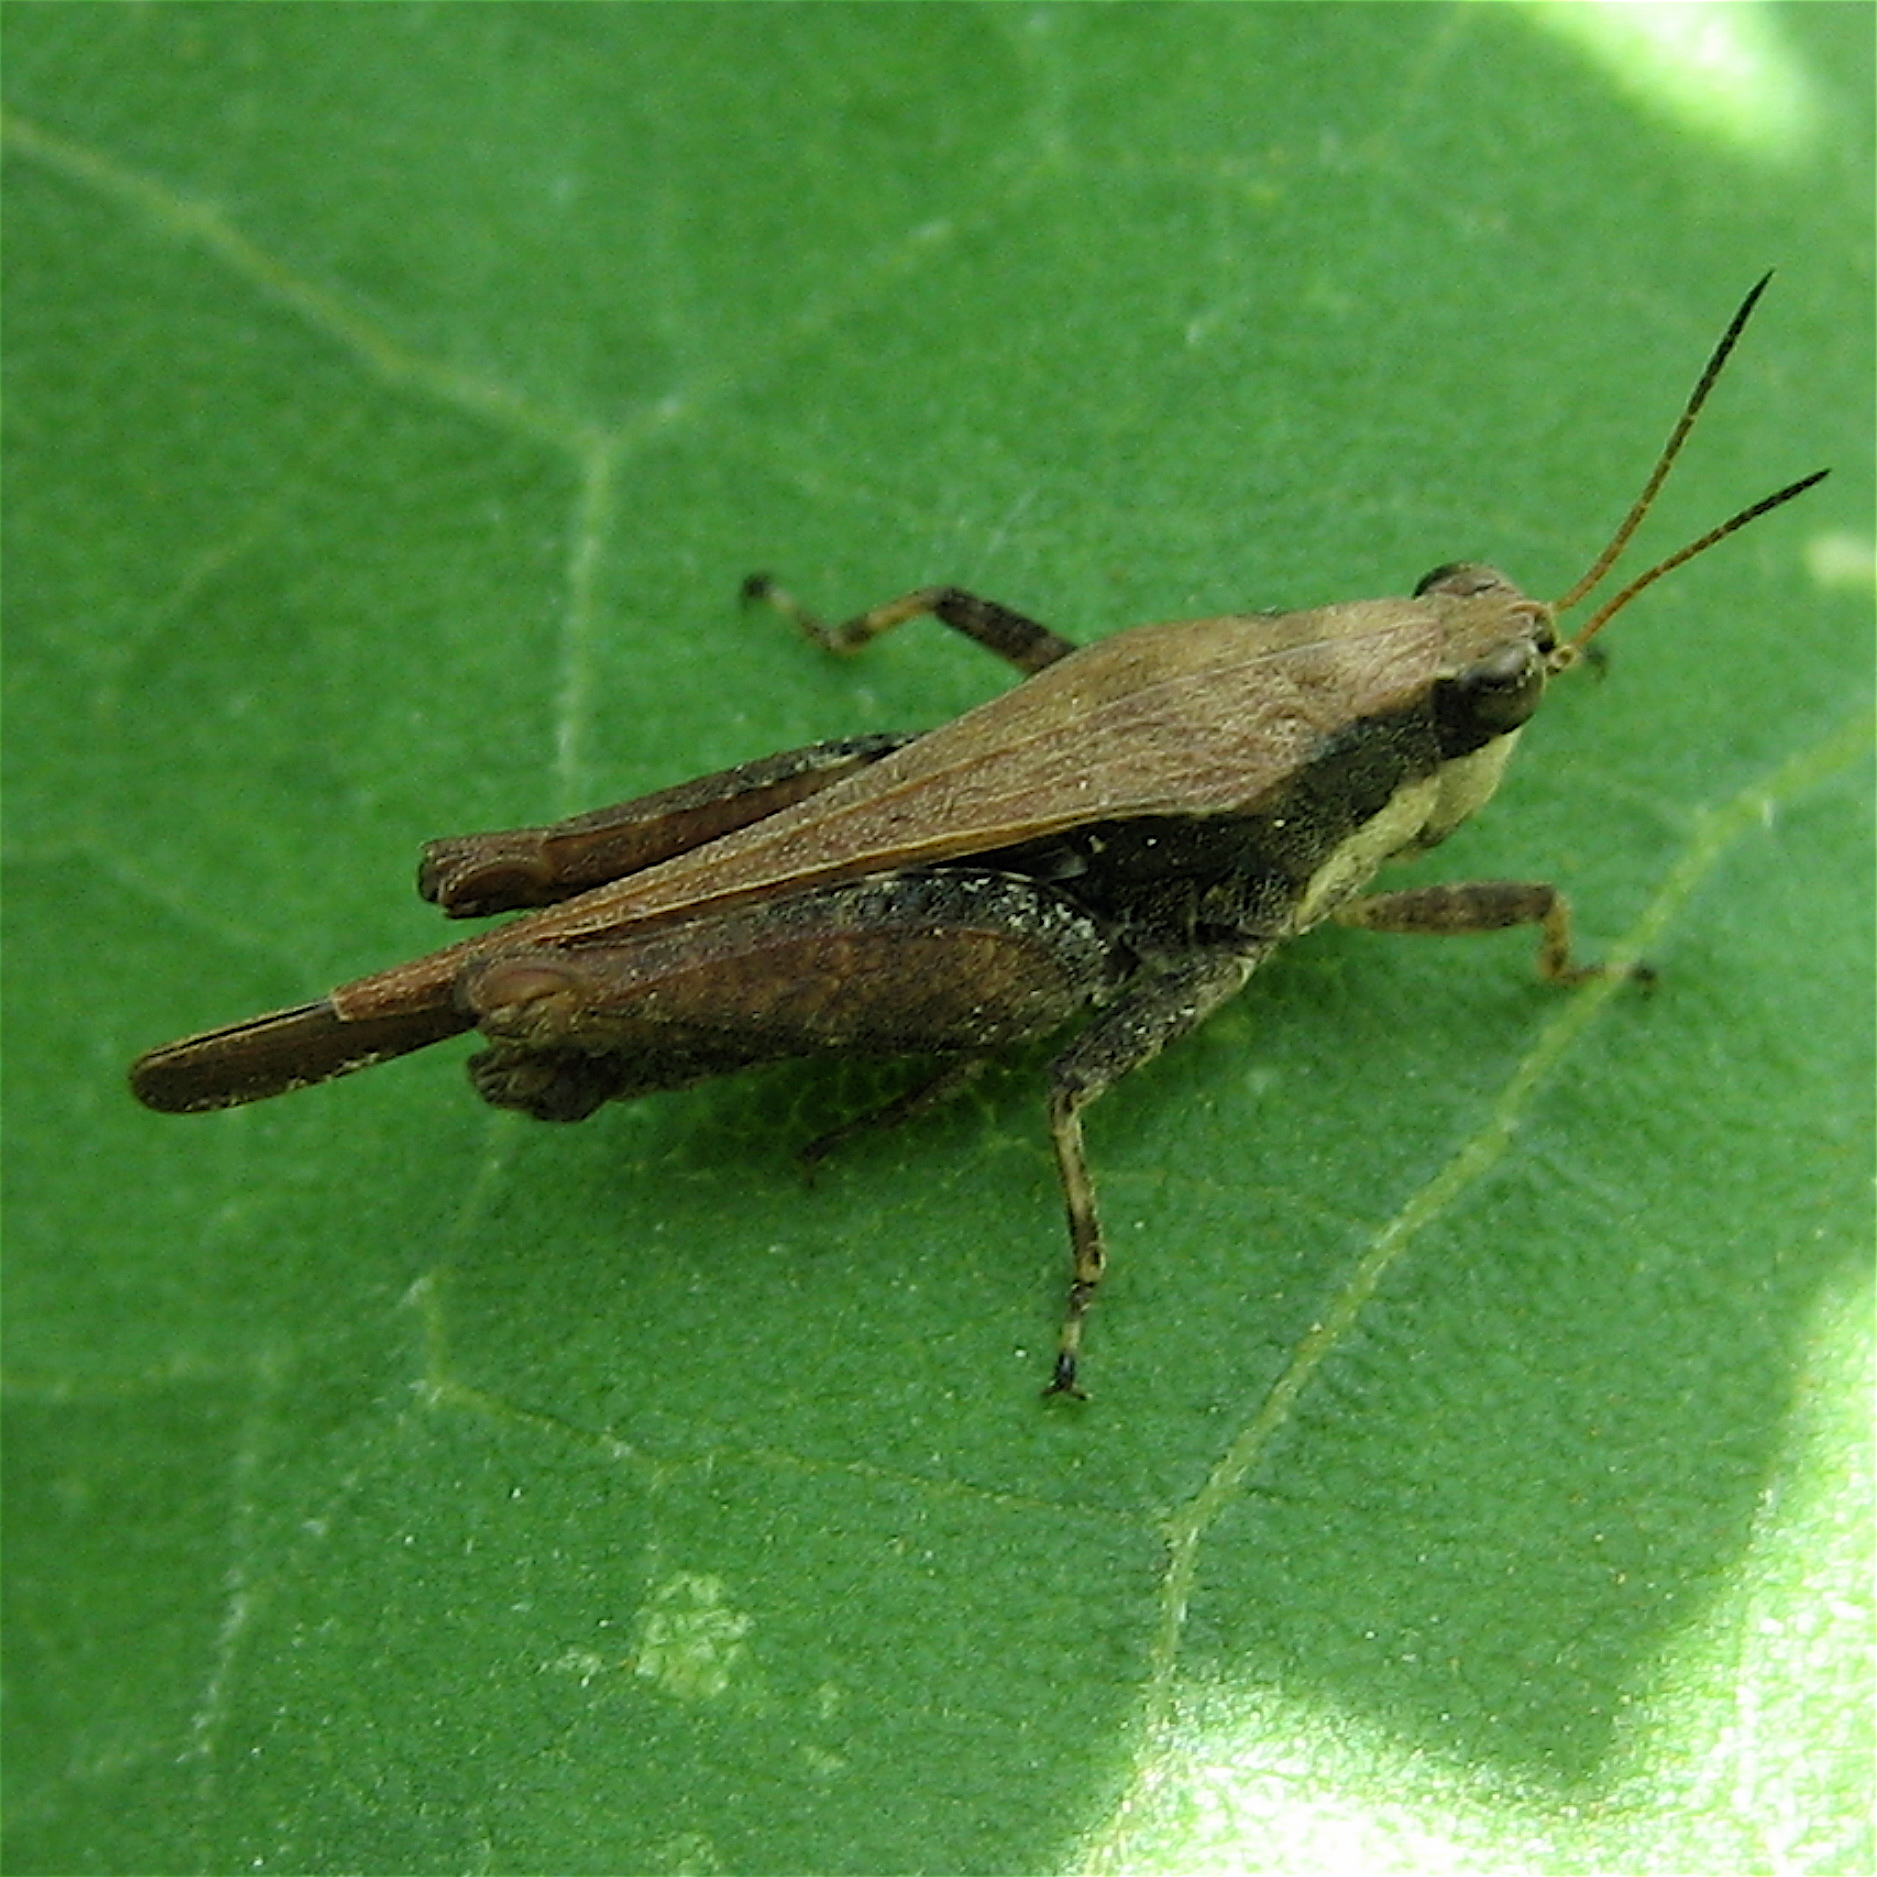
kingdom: Animalia
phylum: Arthropoda
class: Insecta
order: Orthoptera
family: Tetrigidae
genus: Tettigidea
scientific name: Tettigidea laterale
